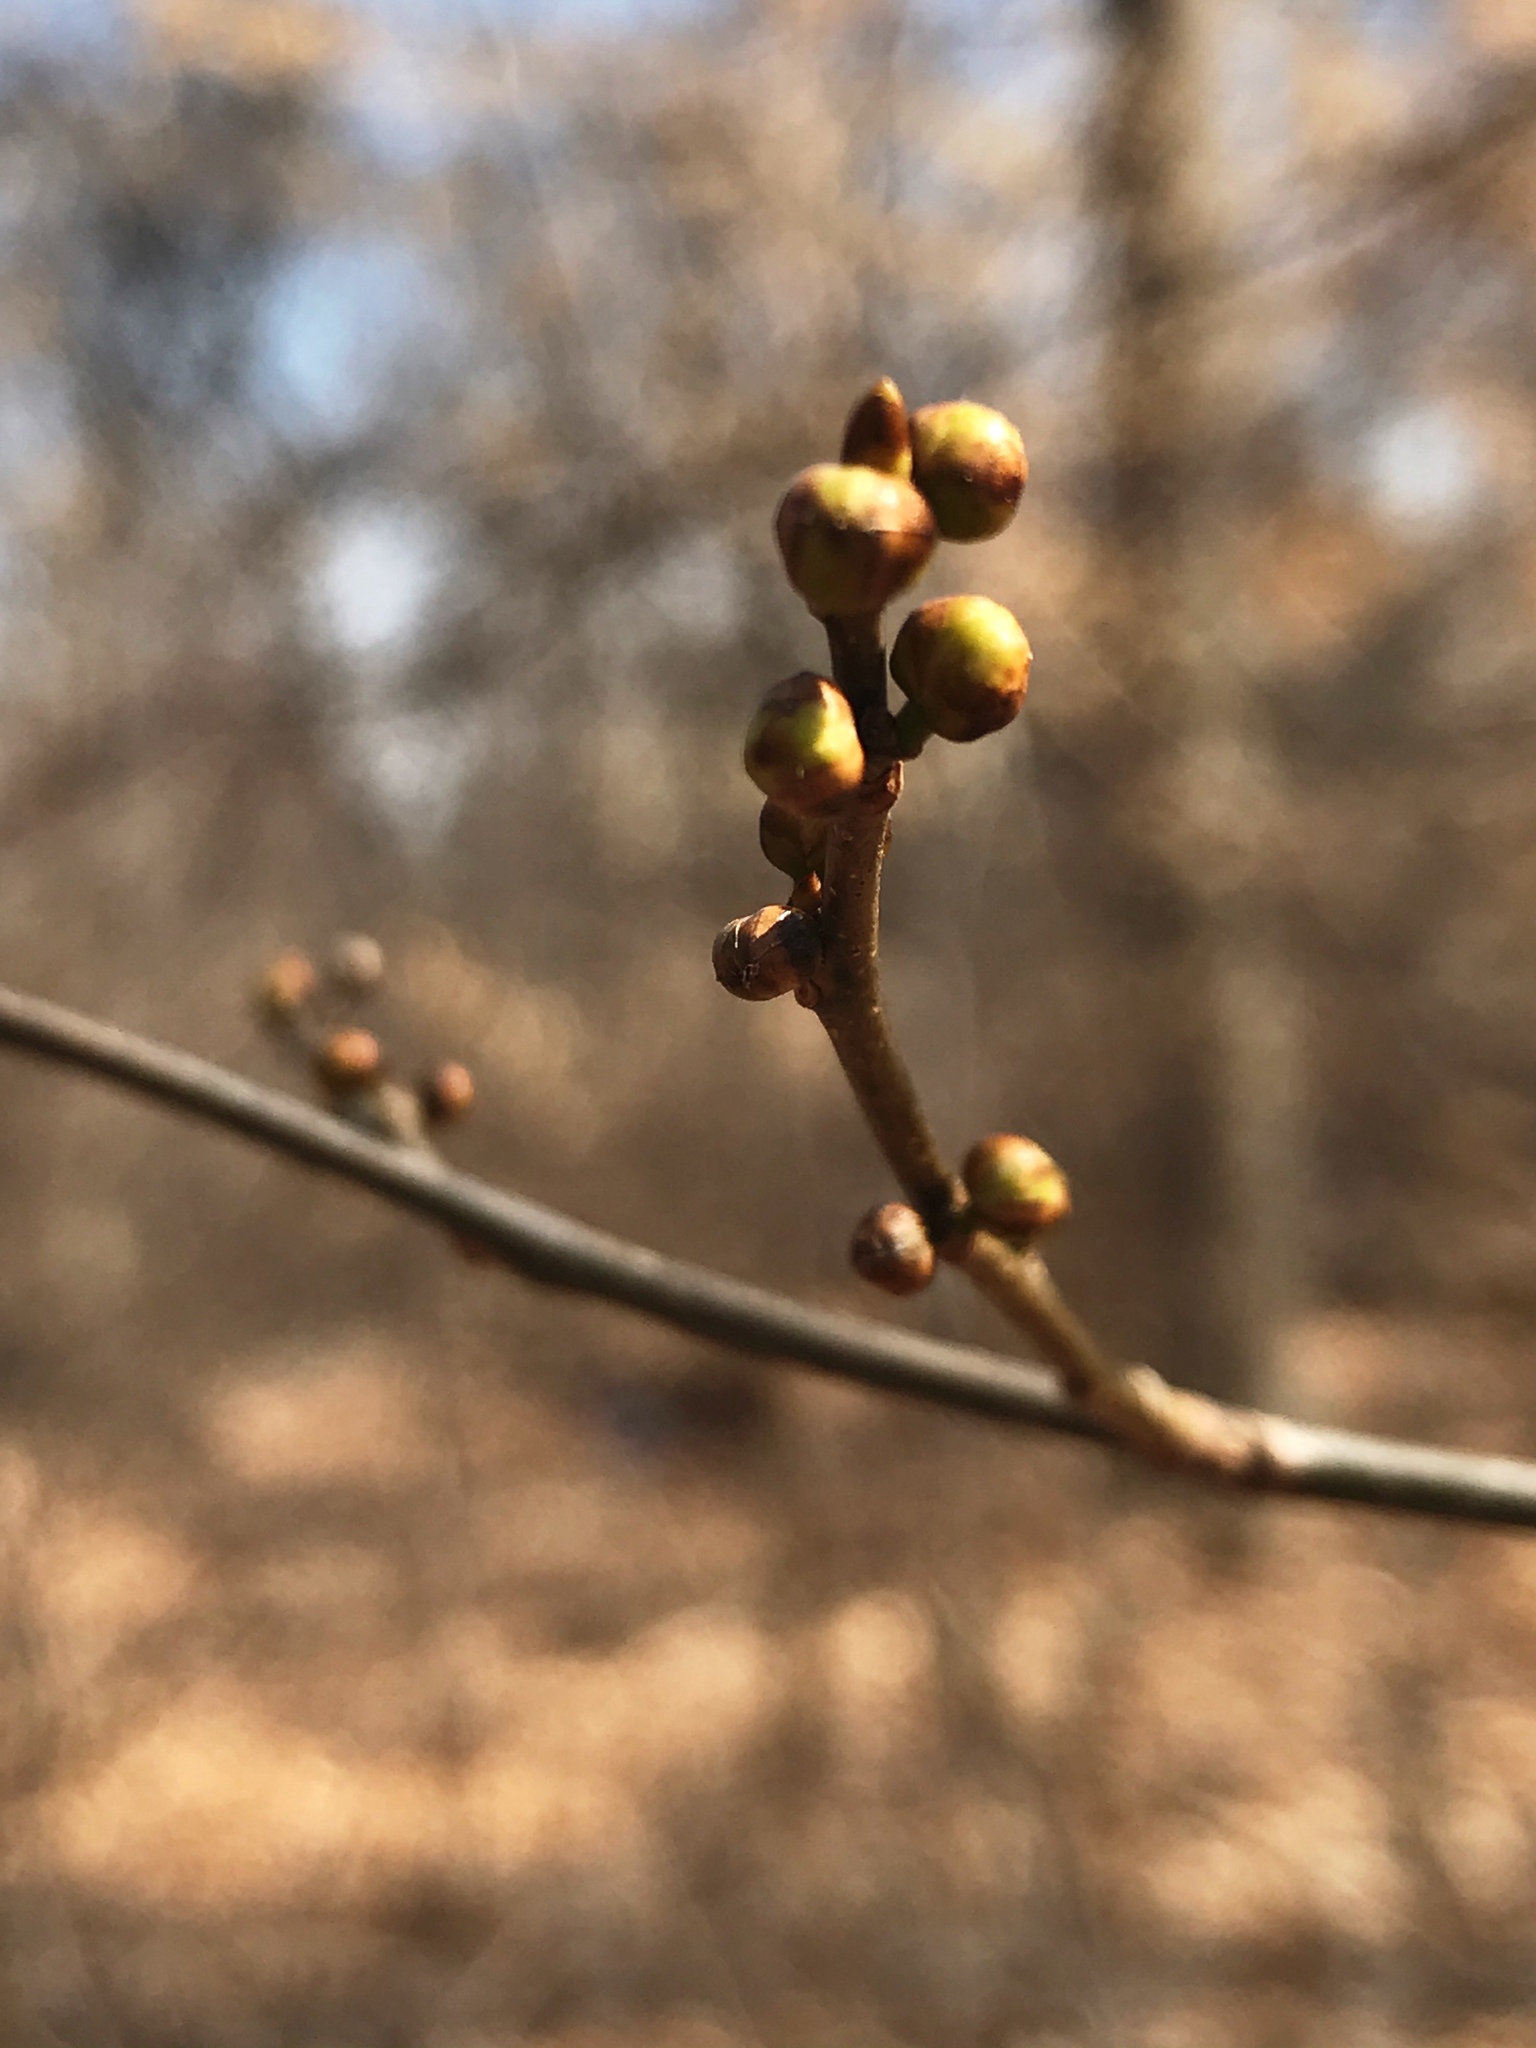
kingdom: Plantae
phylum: Tracheophyta
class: Magnoliopsida
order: Laurales
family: Lauraceae
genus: Lindera
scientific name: Lindera benzoin
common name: Spicebush
